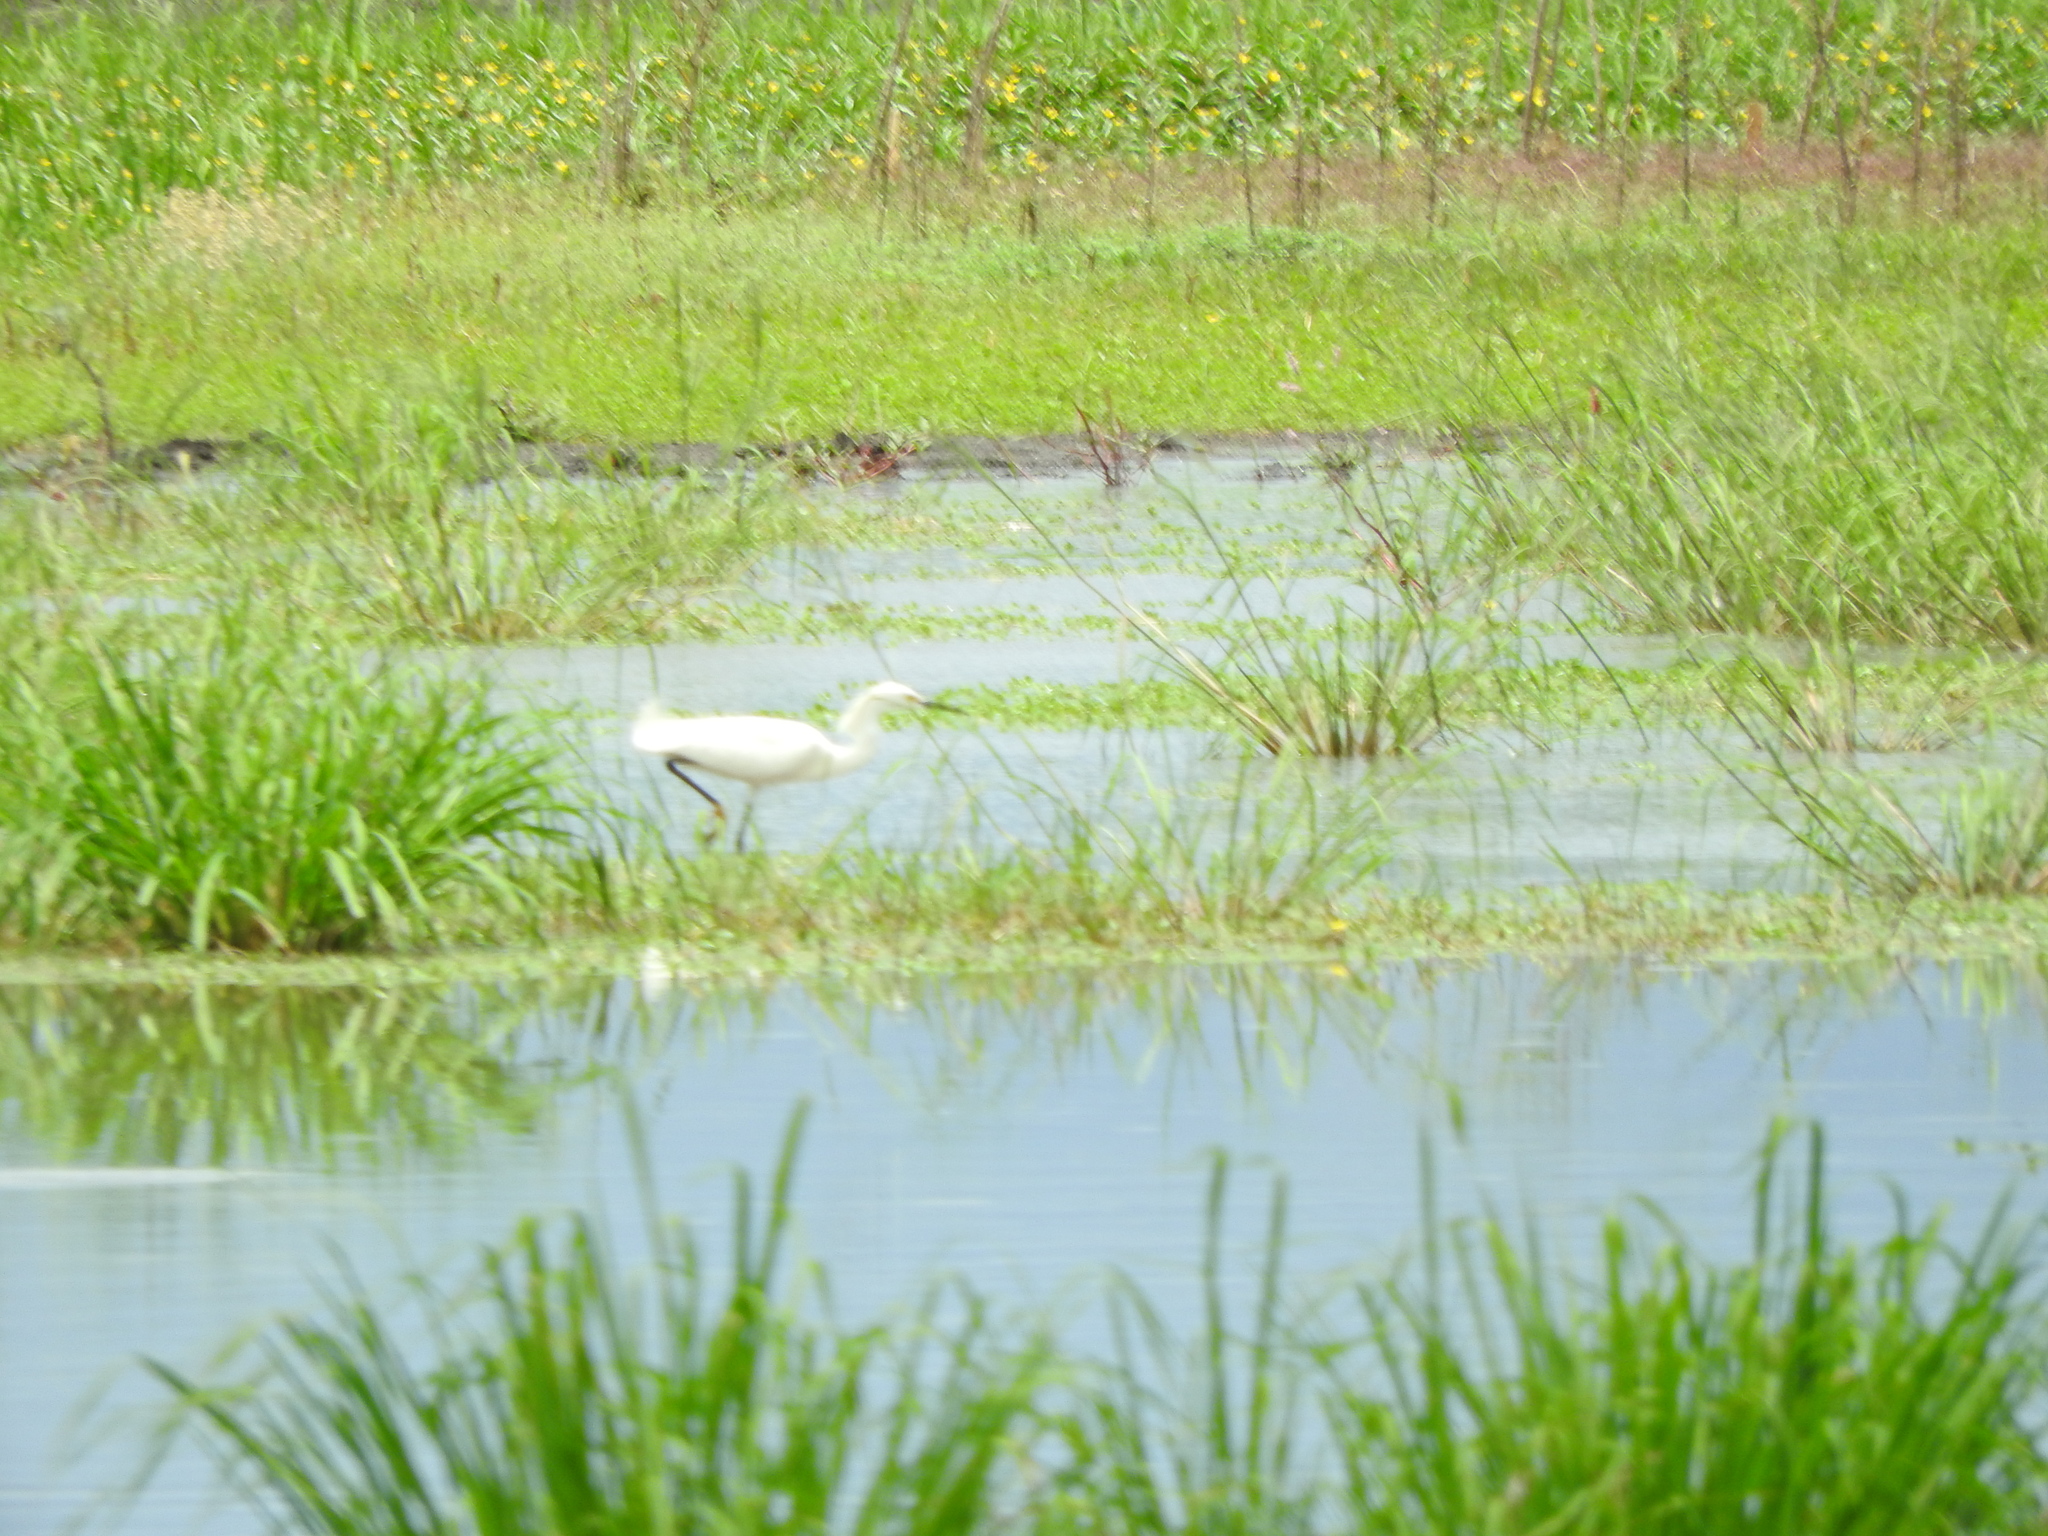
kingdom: Animalia
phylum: Chordata
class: Aves
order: Pelecaniformes
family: Ardeidae
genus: Egretta
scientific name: Egretta thula
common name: Snowy egret
